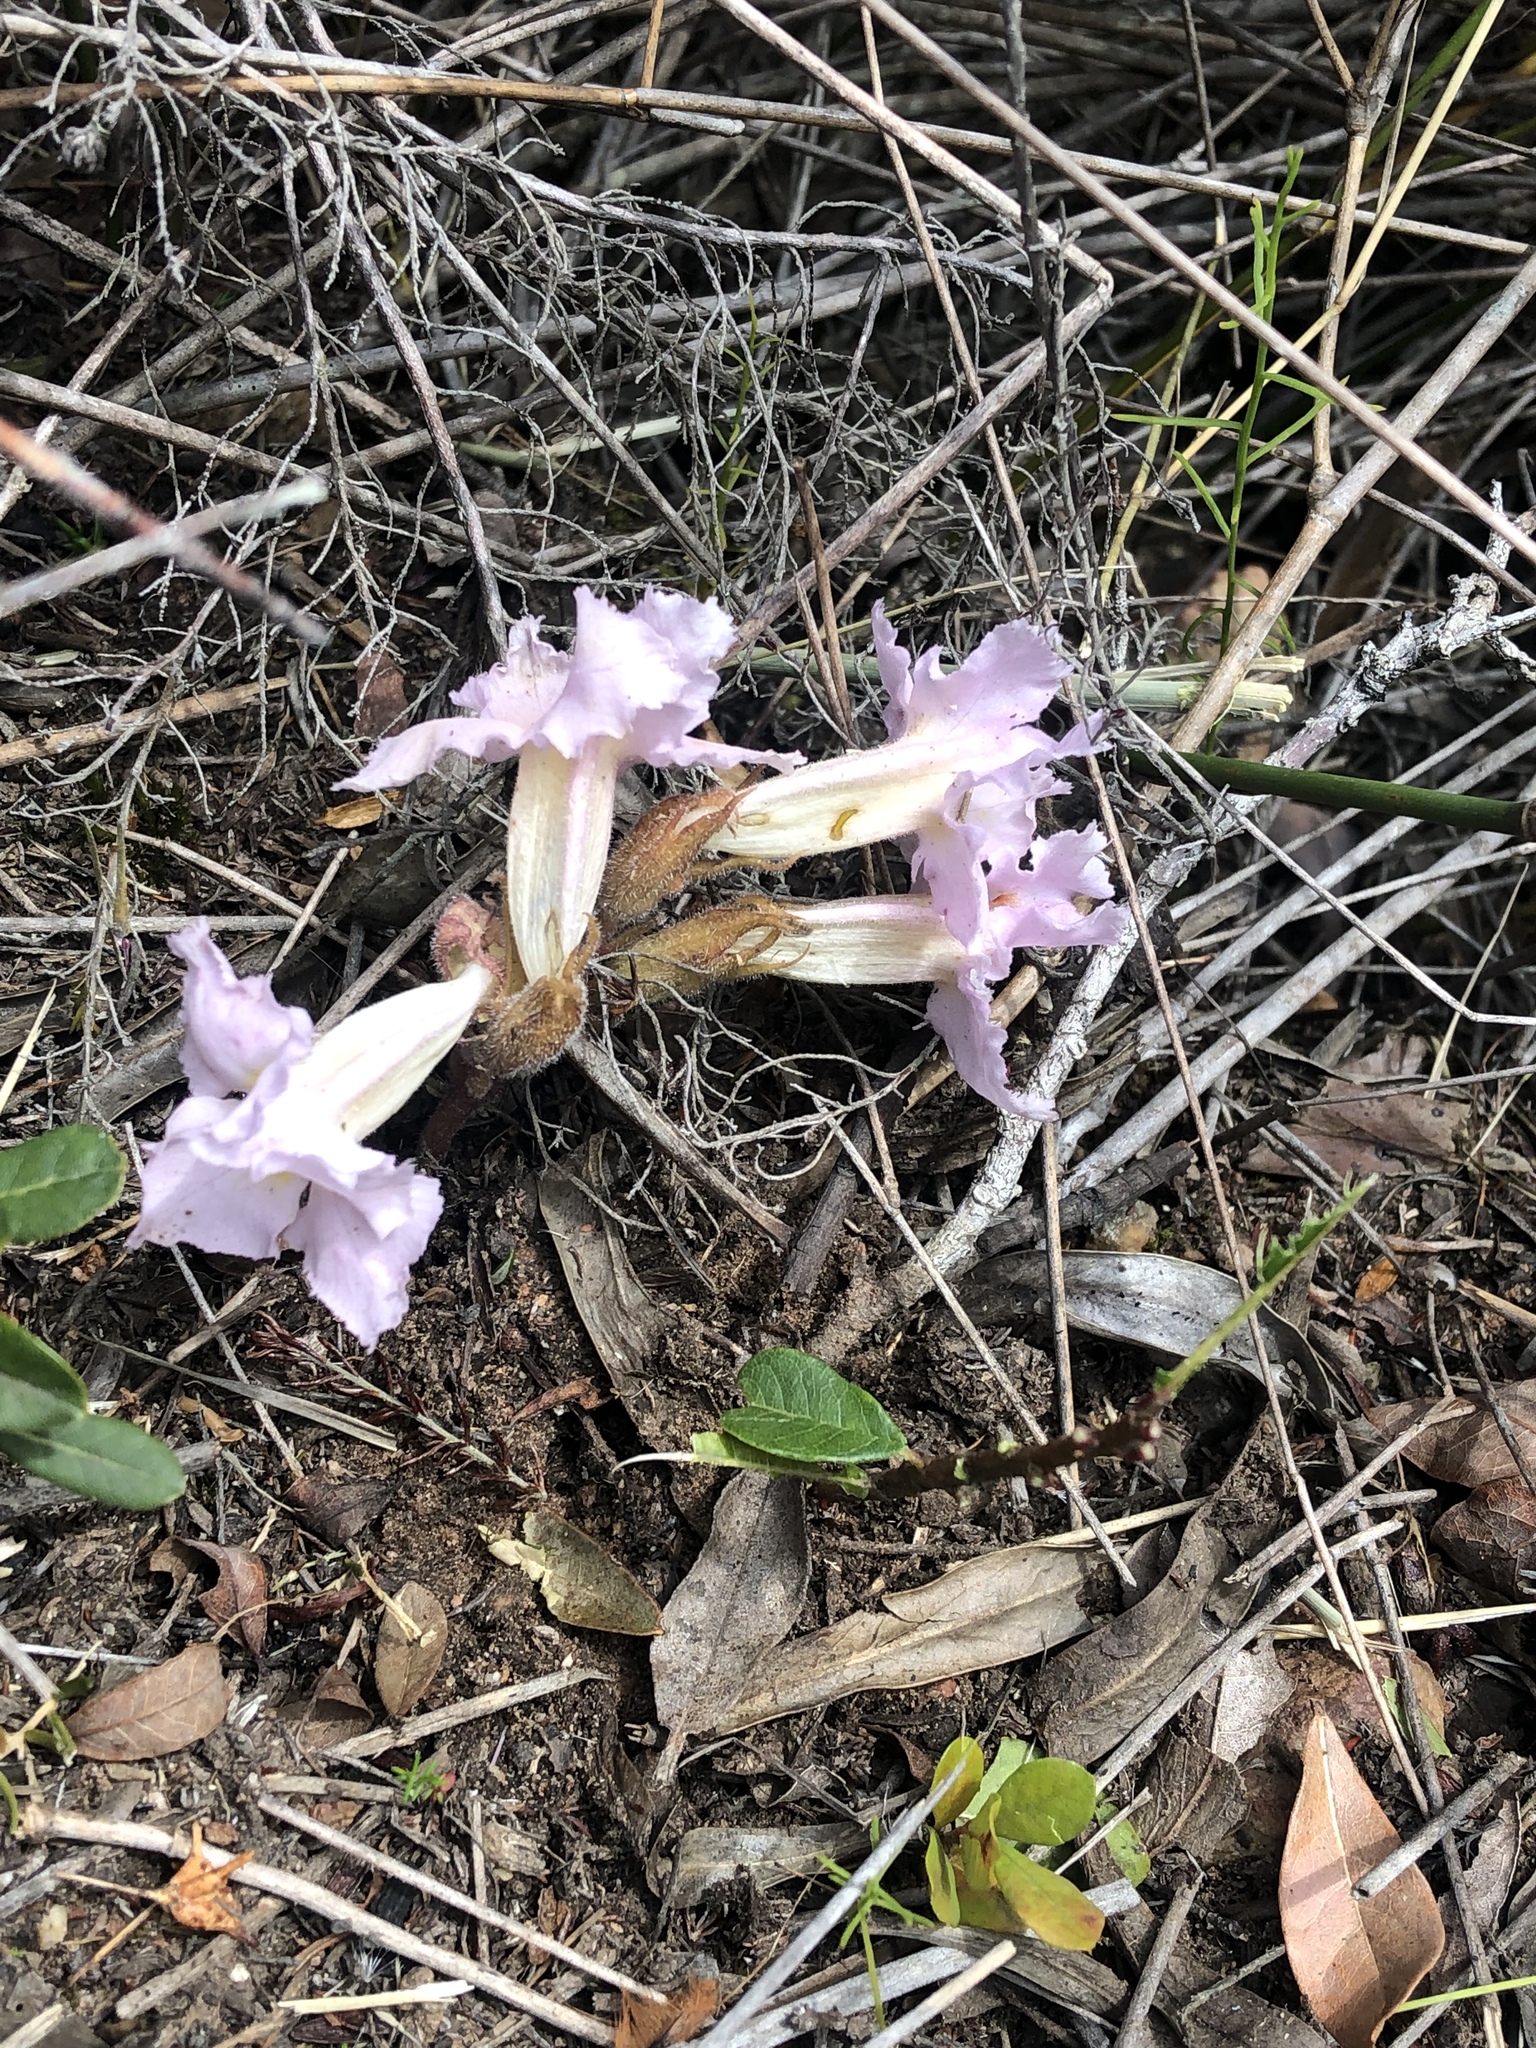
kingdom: Plantae
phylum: Tracheophyta
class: Magnoliopsida
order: Lamiales
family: Orobanchaceae
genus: Harveya
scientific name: Harveya purpurea
